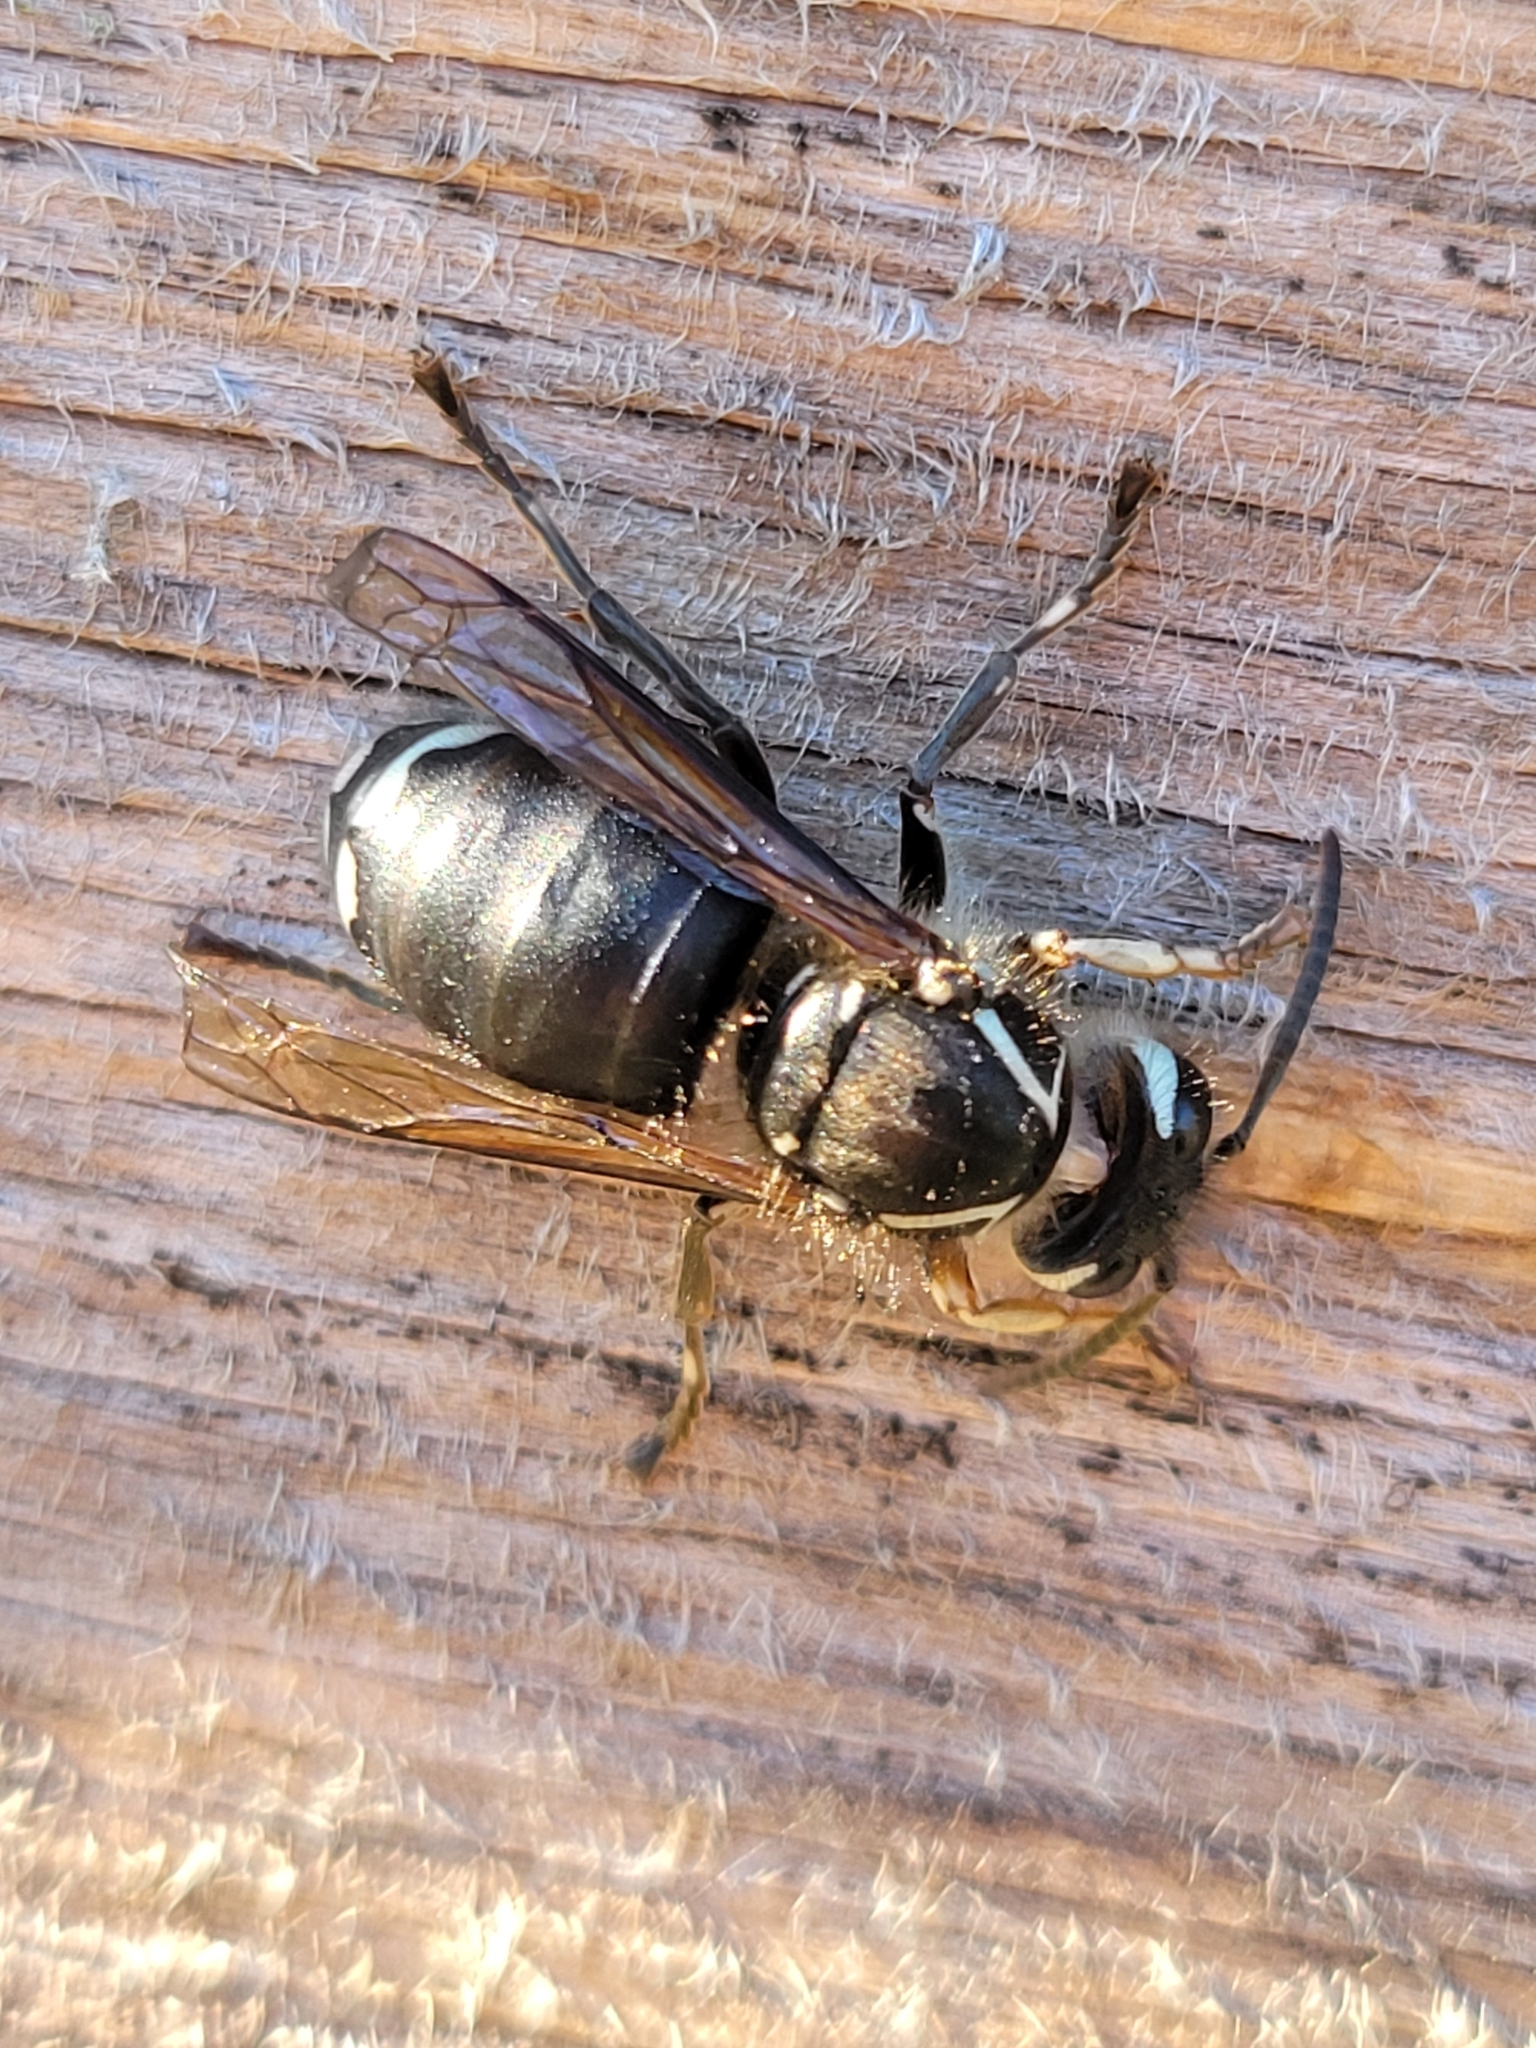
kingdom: Animalia
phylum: Arthropoda
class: Insecta
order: Hymenoptera
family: Vespidae
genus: Dolichovespula
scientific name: Dolichovespula maculata
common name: Bald-faced hornet
